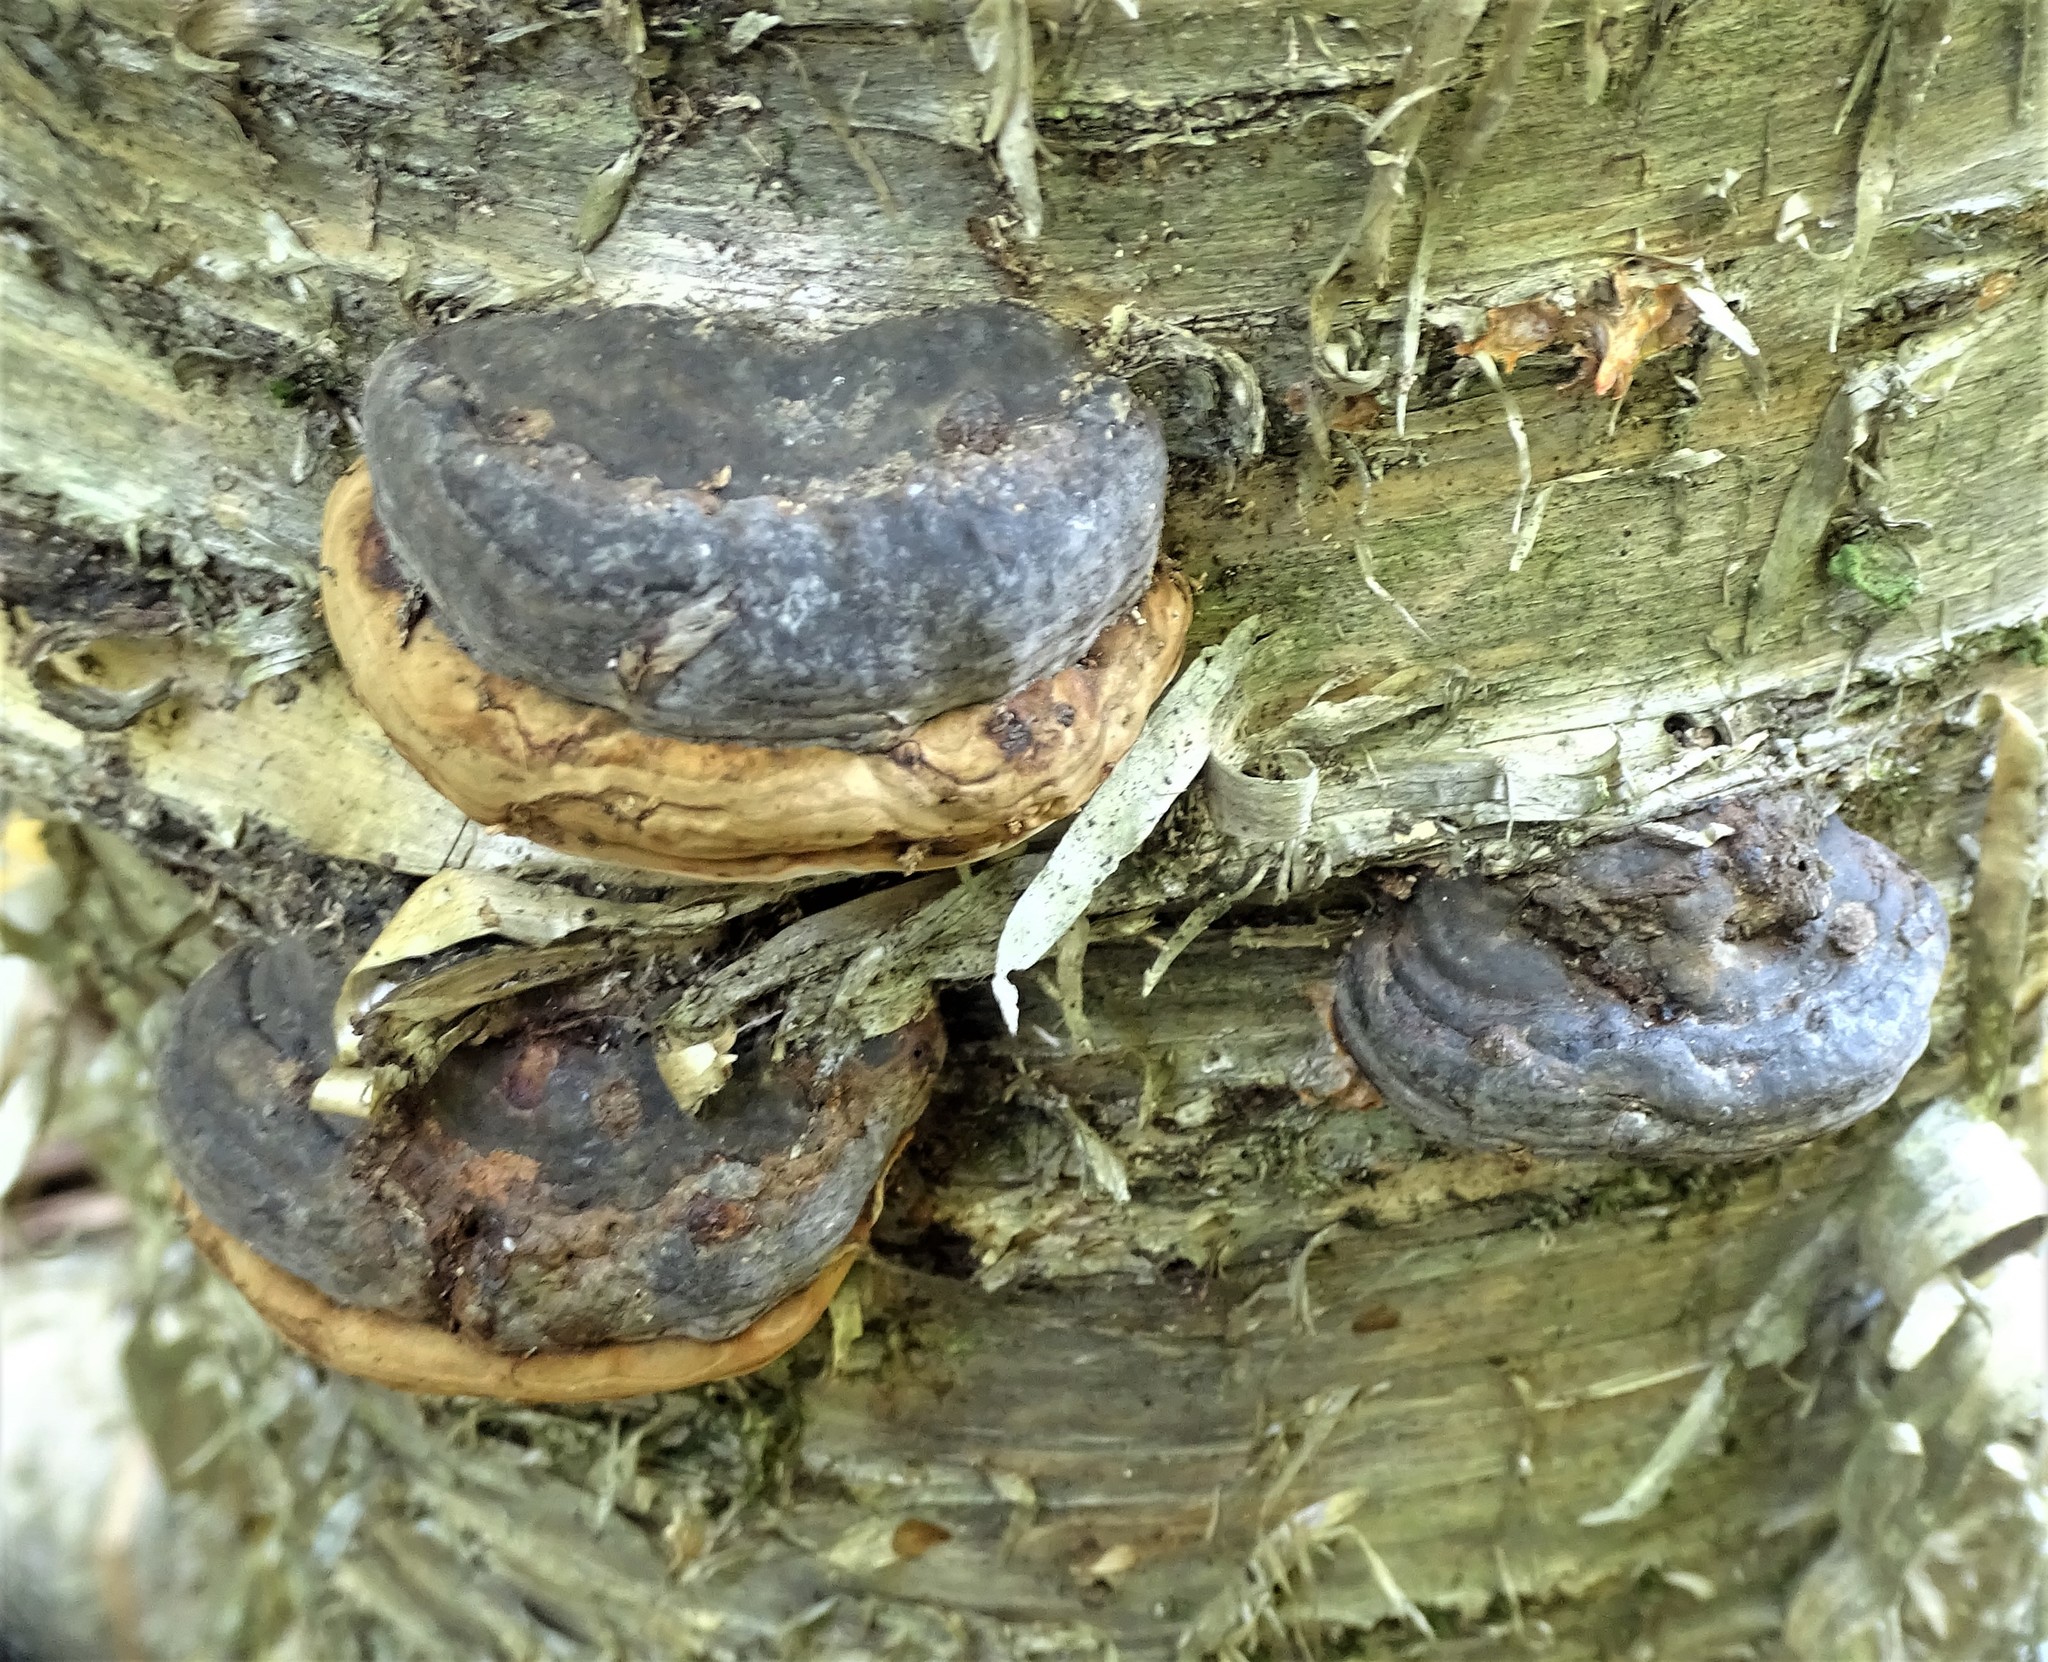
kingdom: Fungi
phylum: Basidiomycota
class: Agaricomycetes
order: Polyporales
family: Polyporaceae
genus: Fomes
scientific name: Fomes fomentarius
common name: Hoof fungus
